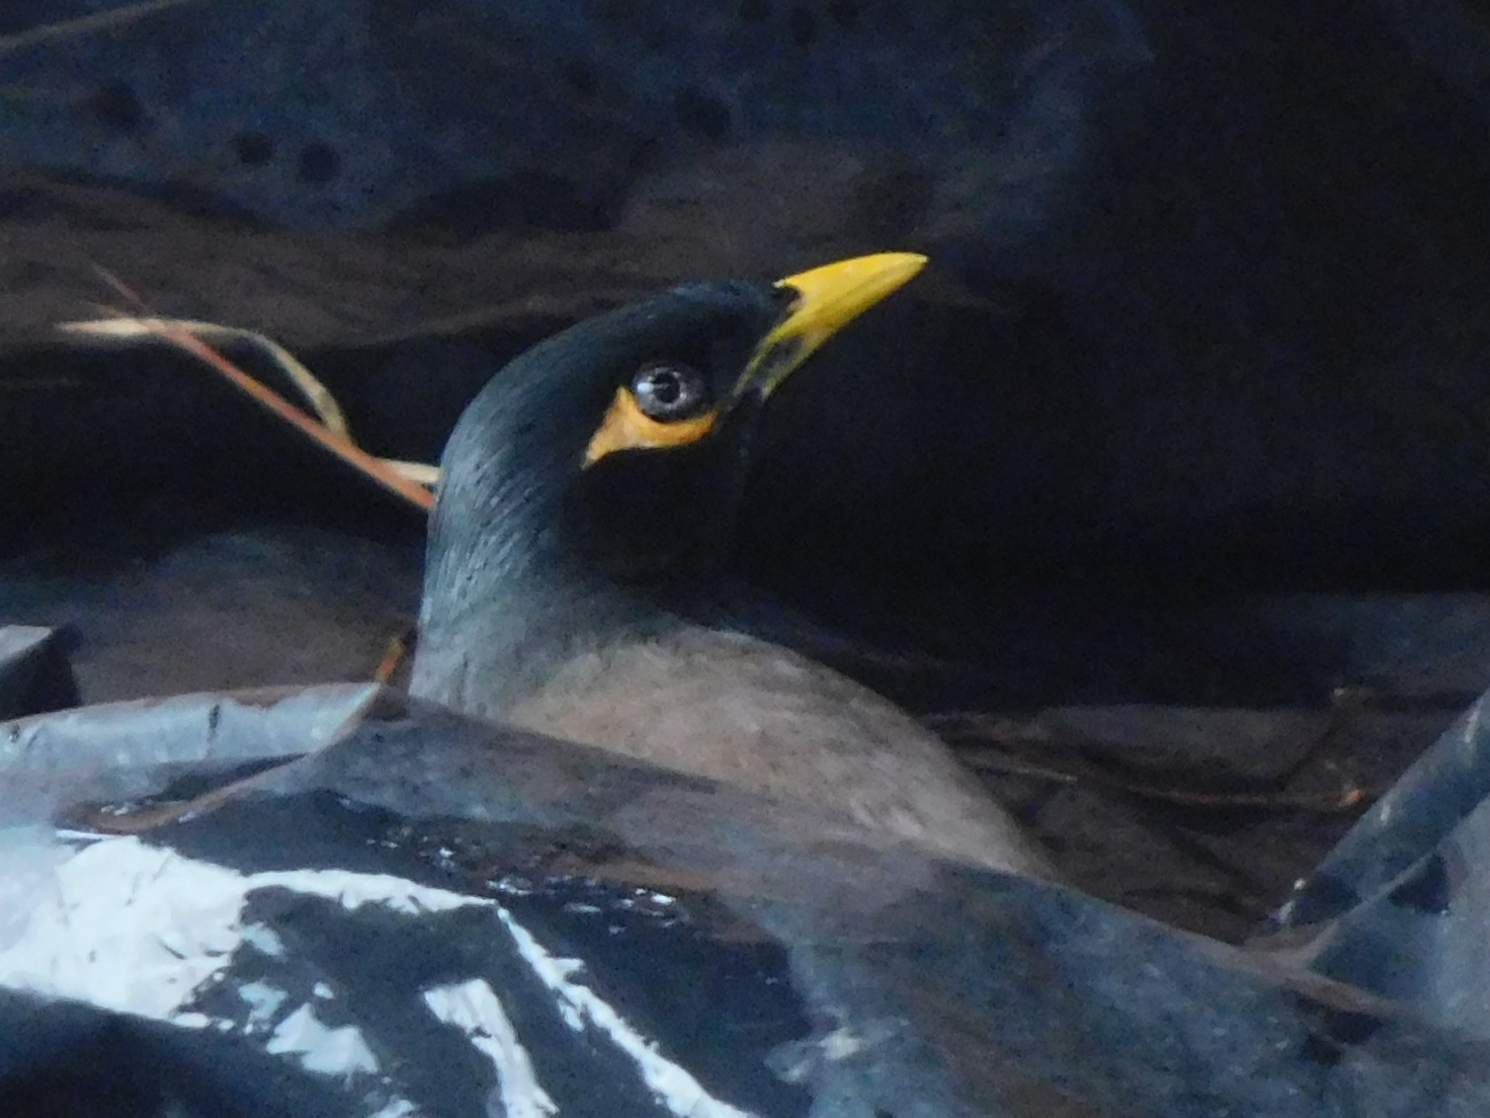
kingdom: Animalia
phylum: Chordata
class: Aves
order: Passeriformes
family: Sturnidae
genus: Acridotheres
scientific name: Acridotheres tristis
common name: Common myna
